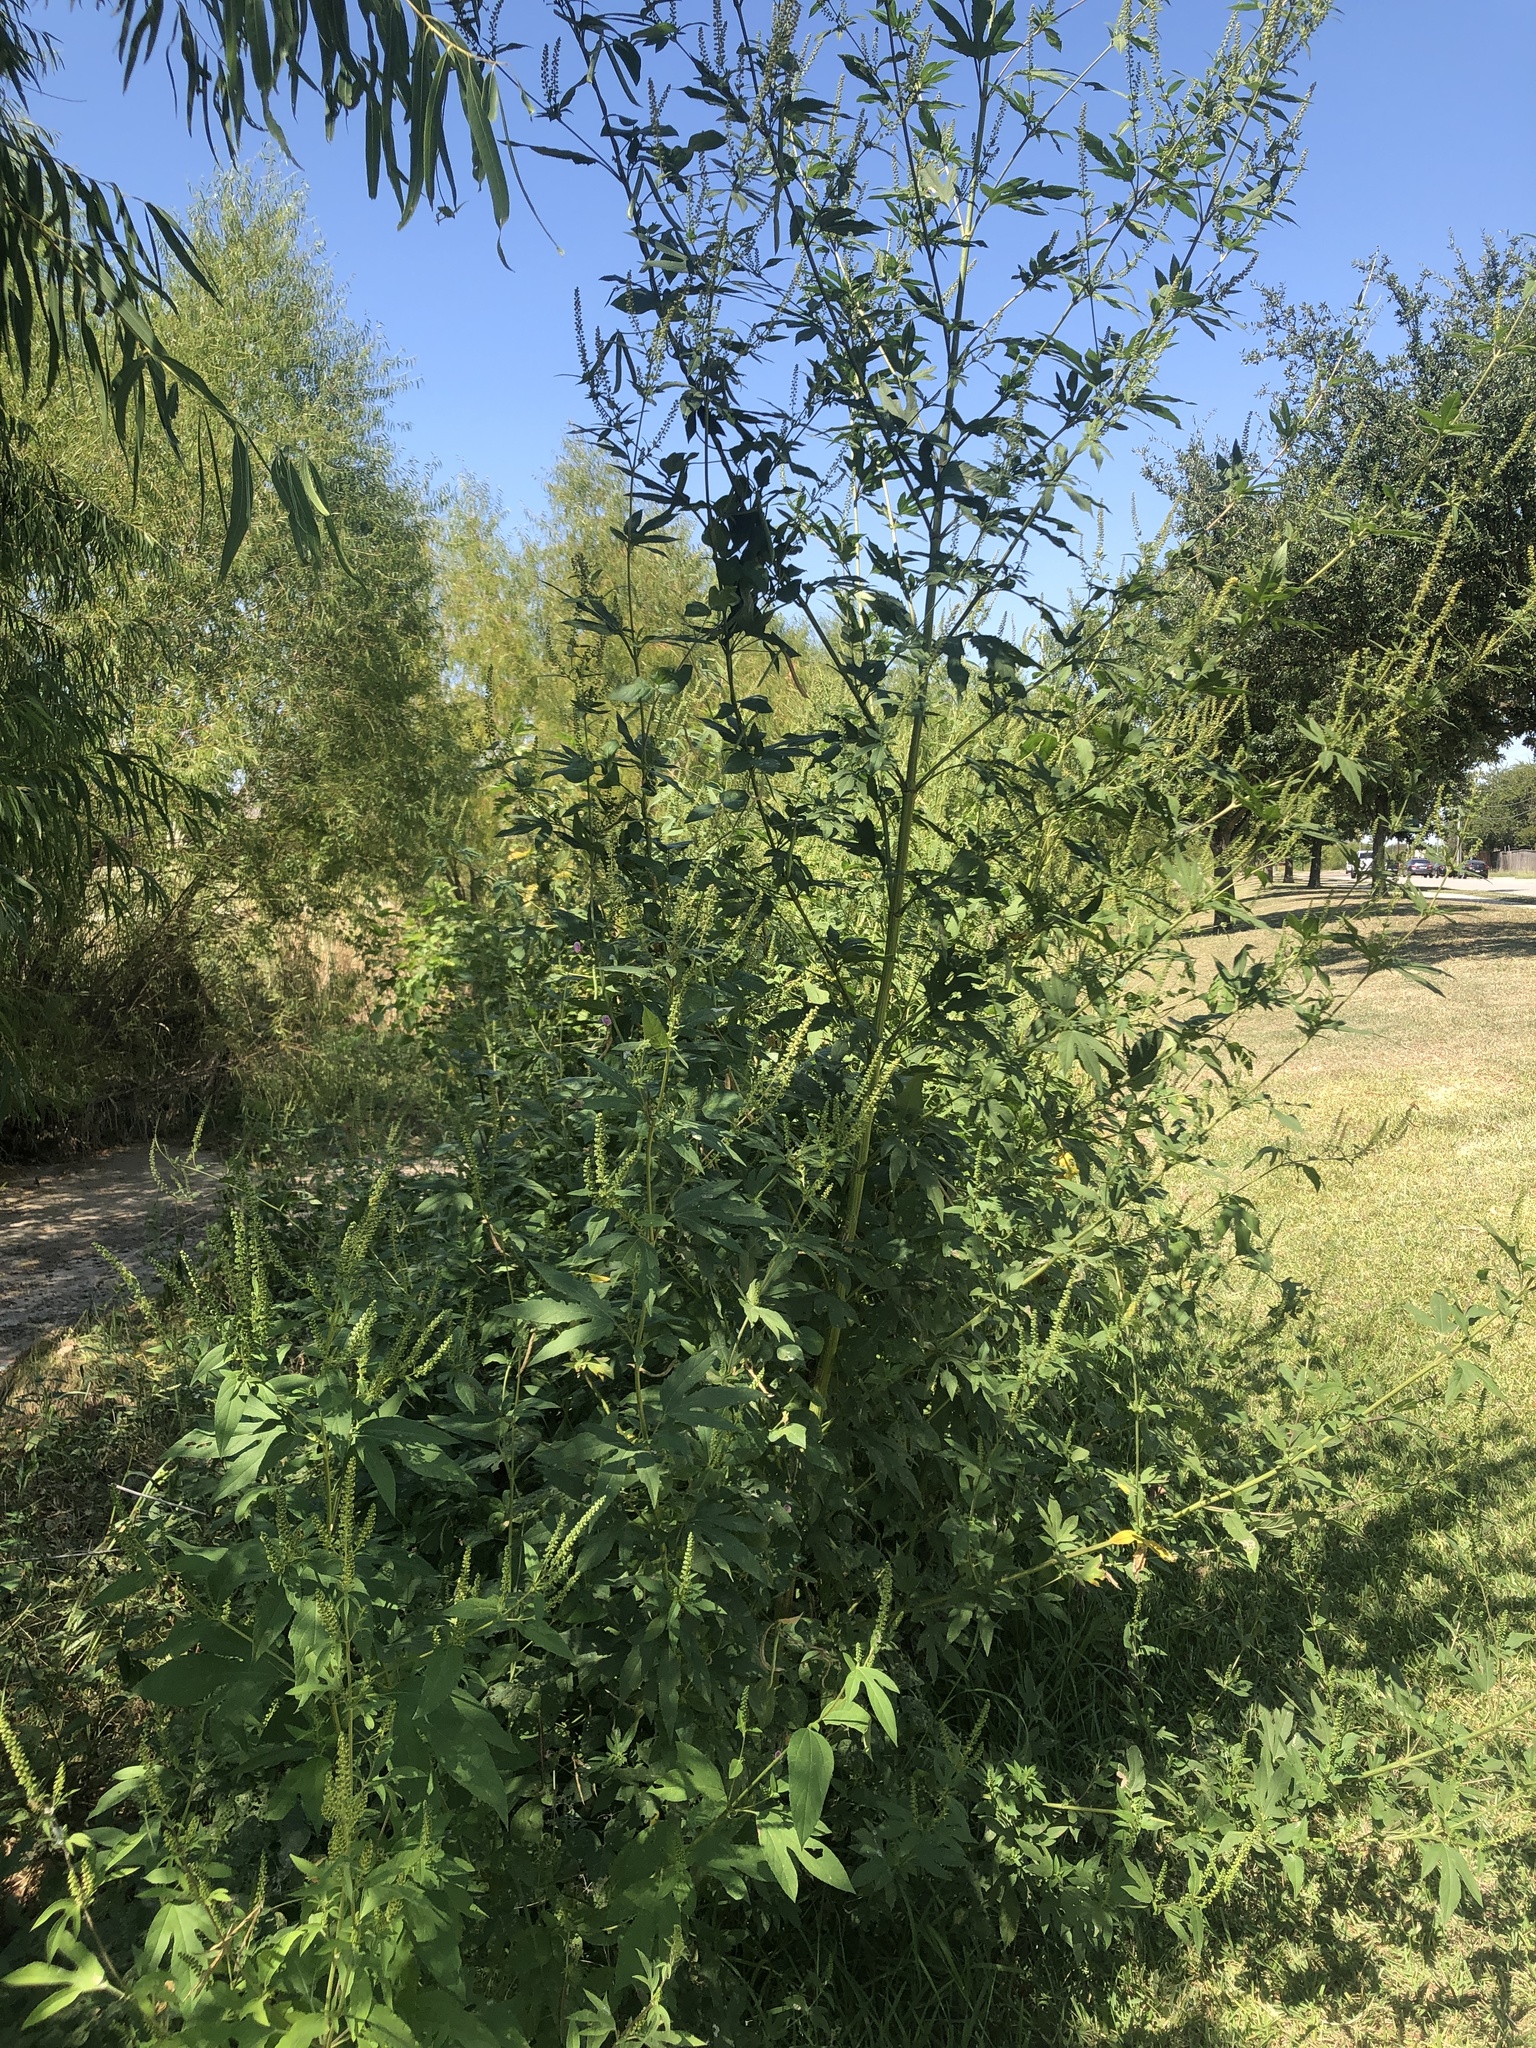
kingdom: Plantae
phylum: Tracheophyta
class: Magnoliopsida
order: Asterales
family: Asteraceae
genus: Ambrosia
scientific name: Ambrosia trifida
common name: Giant ragweed
